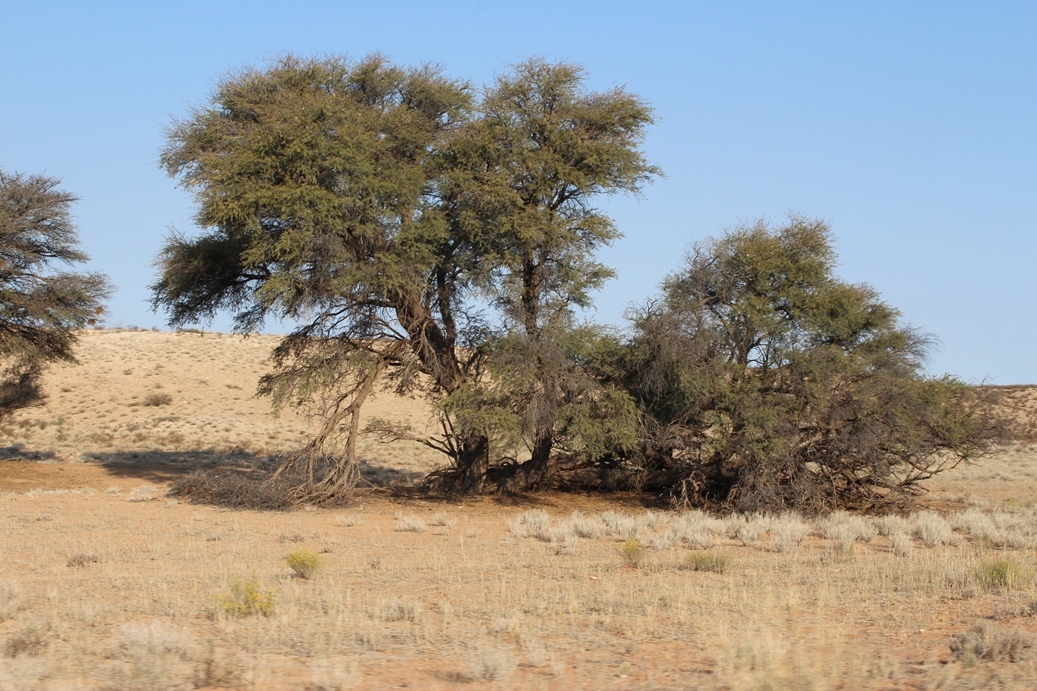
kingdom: Plantae
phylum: Tracheophyta
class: Magnoliopsida
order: Fabales
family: Fabaceae
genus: Vachellia
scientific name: Vachellia erioloba
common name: Camel thorn
